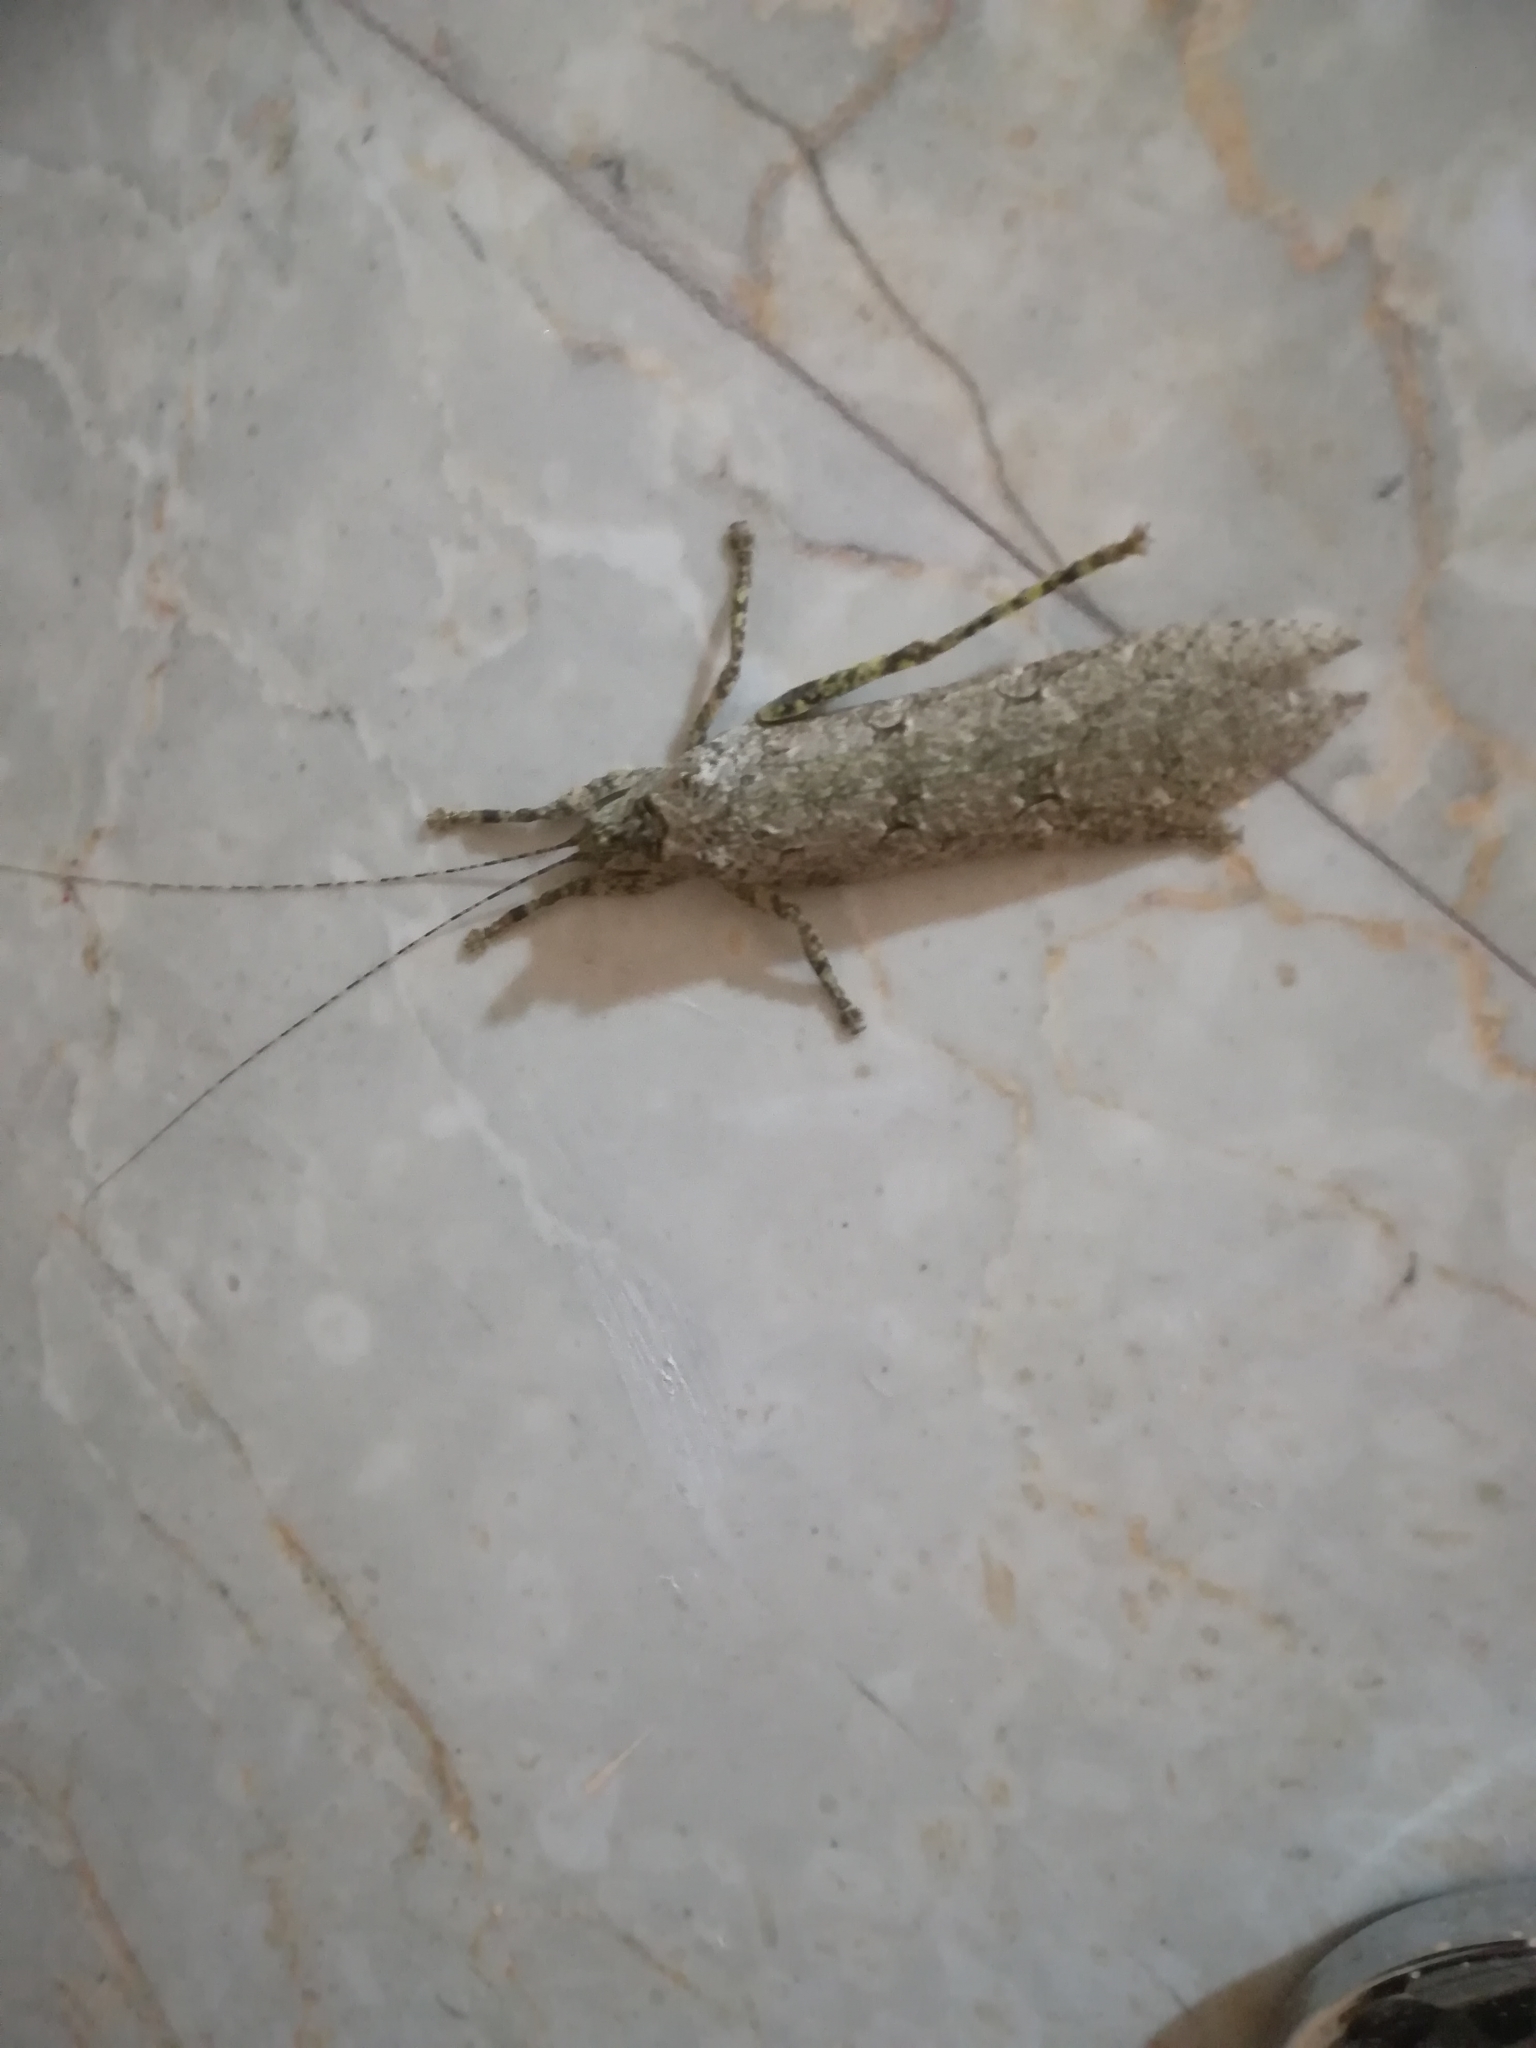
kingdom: Animalia
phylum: Arthropoda
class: Insecta
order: Orthoptera
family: Tettigoniidae
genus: Sathrophyllia
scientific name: Sathrophyllia rugosa
